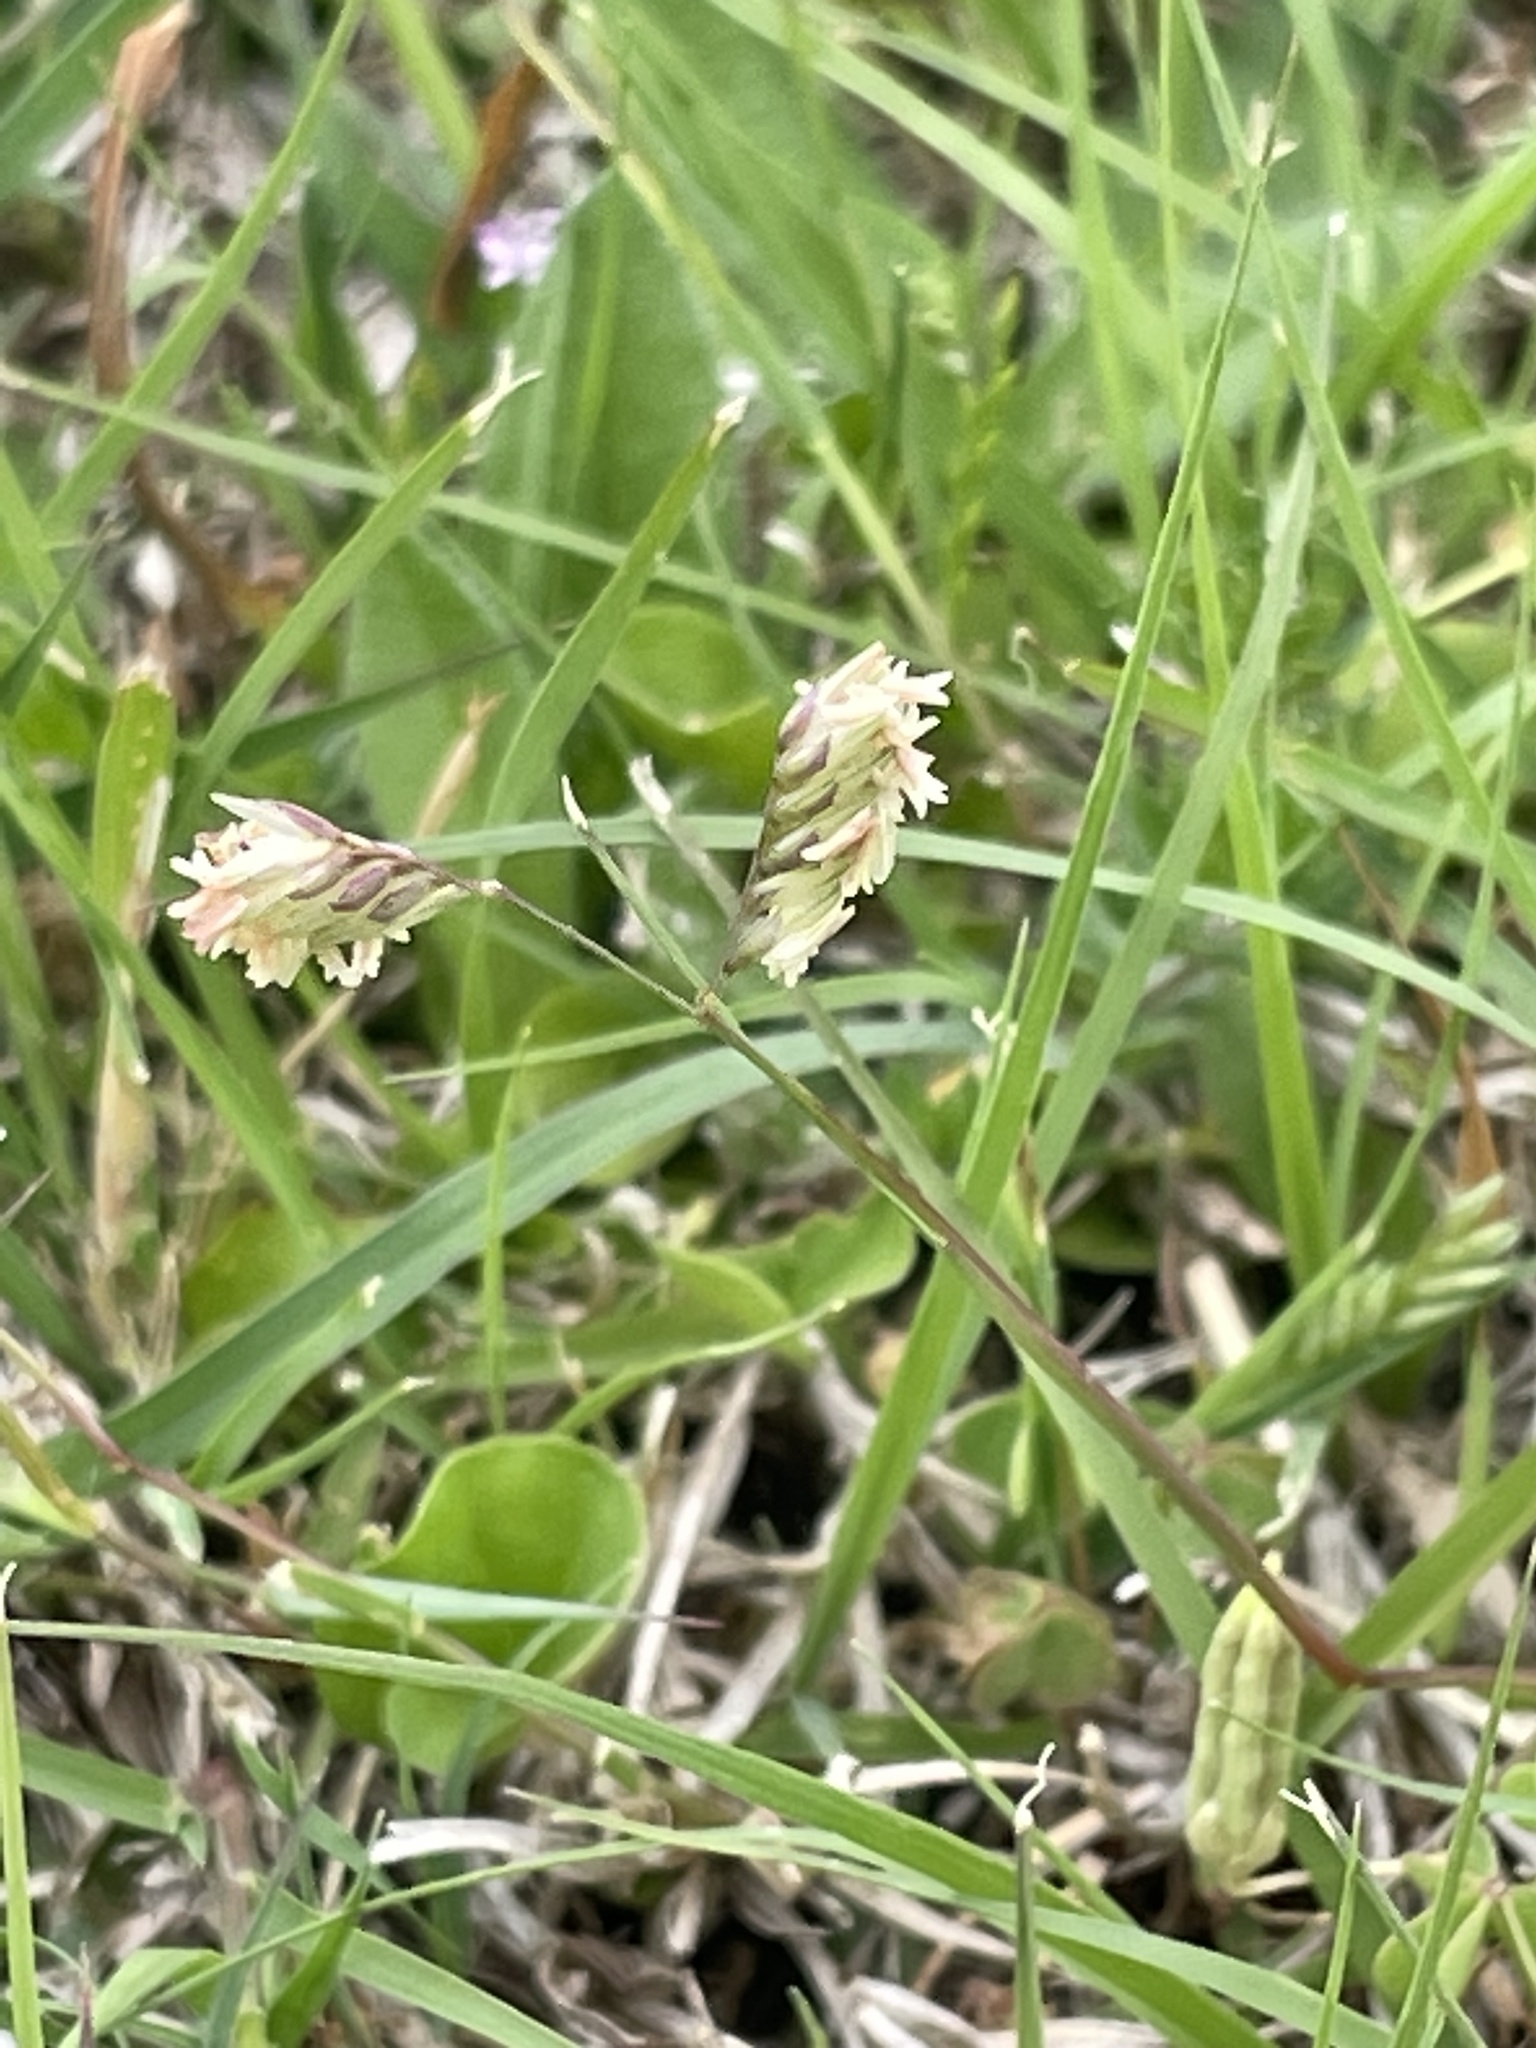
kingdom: Plantae
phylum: Tracheophyta
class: Liliopsida
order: Poales
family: Poaceae
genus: Bouteloua
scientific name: Bouteloua dactyloides
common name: Buffalo grass
